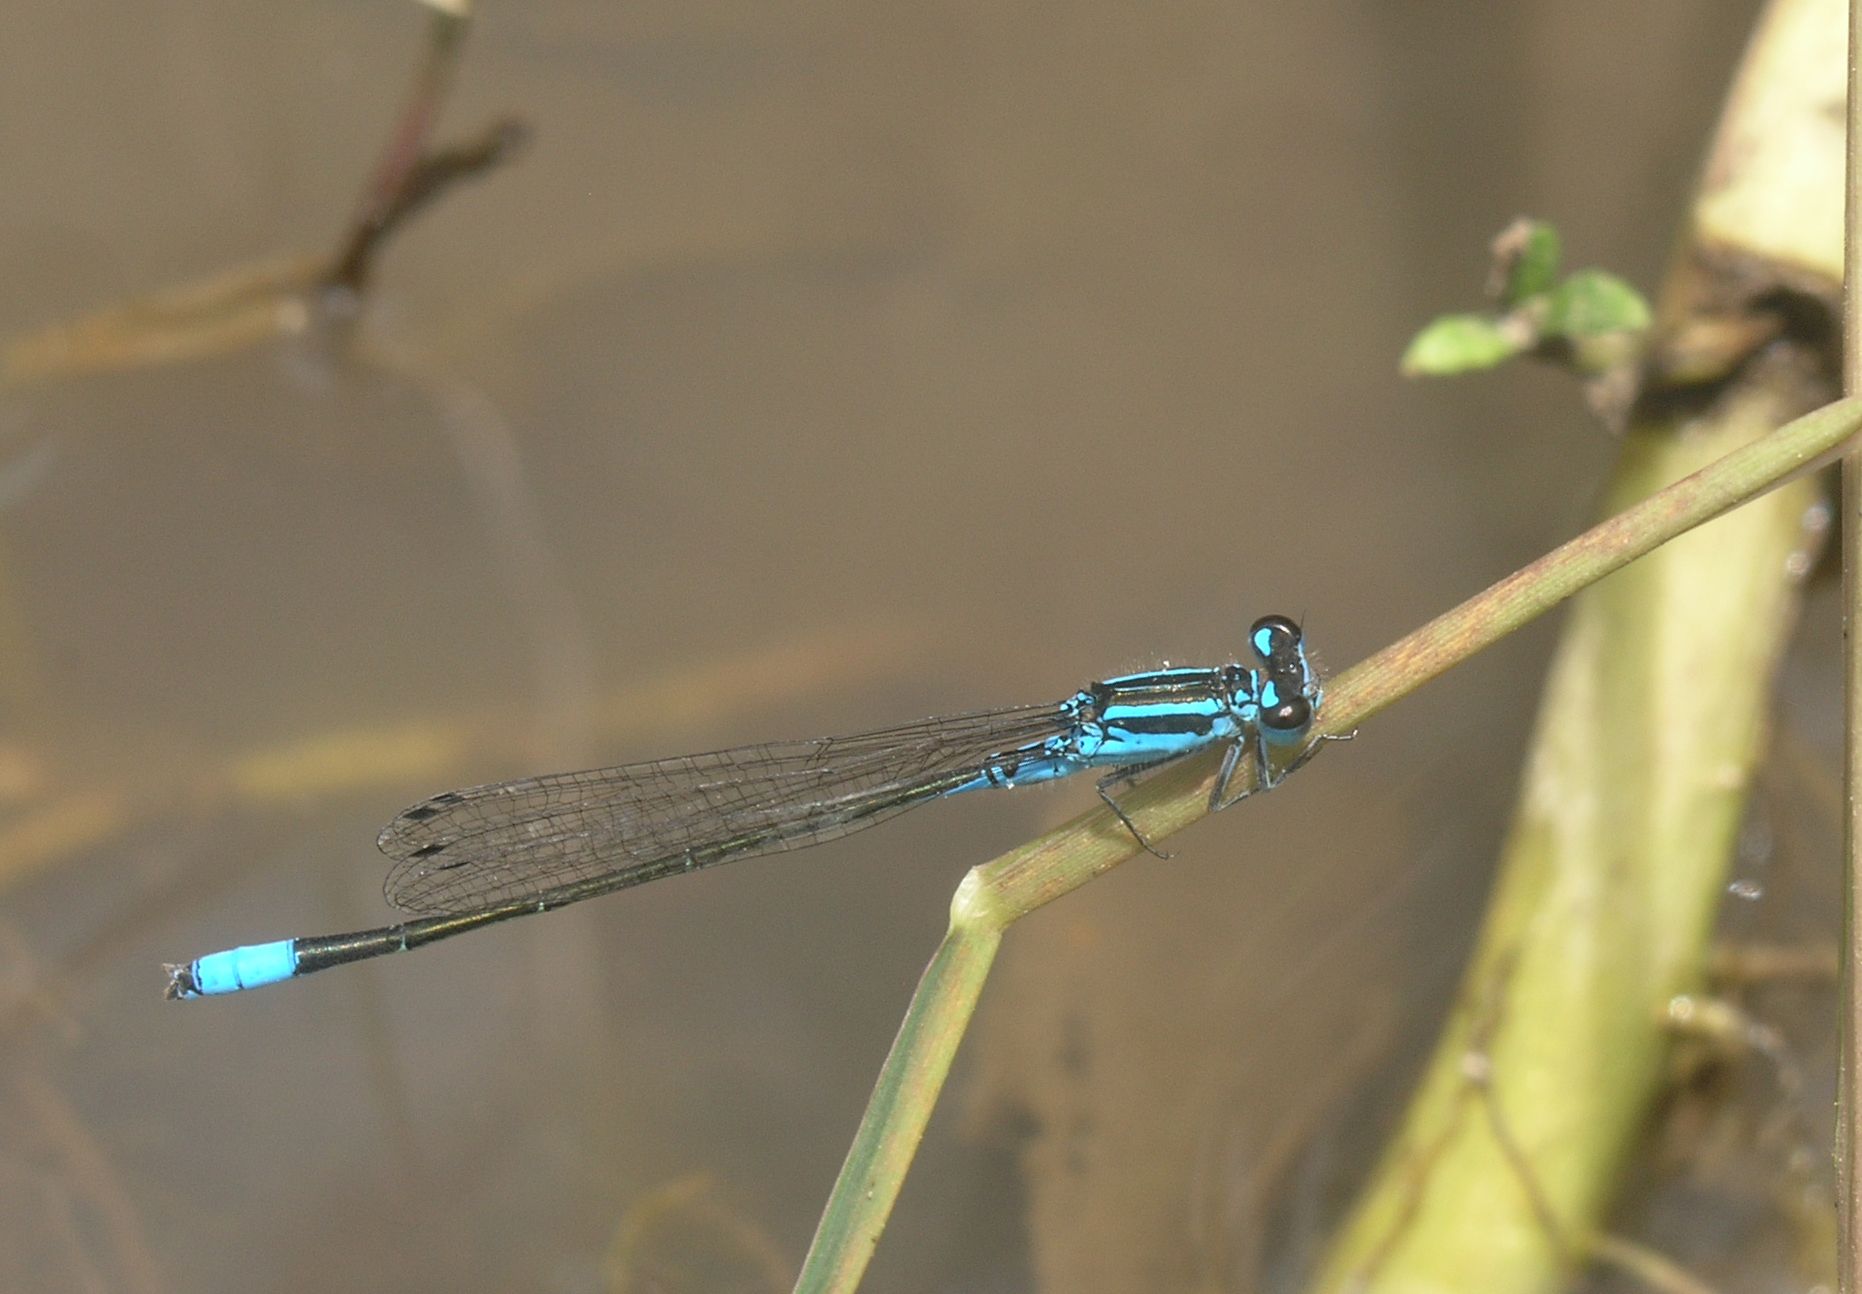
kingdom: Animalia
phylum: Arthropoda
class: Insecta
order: Odonata
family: Coenagrionidae
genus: Proischnura
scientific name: Proischnura subfurcata
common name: Fork-tailed bluet
